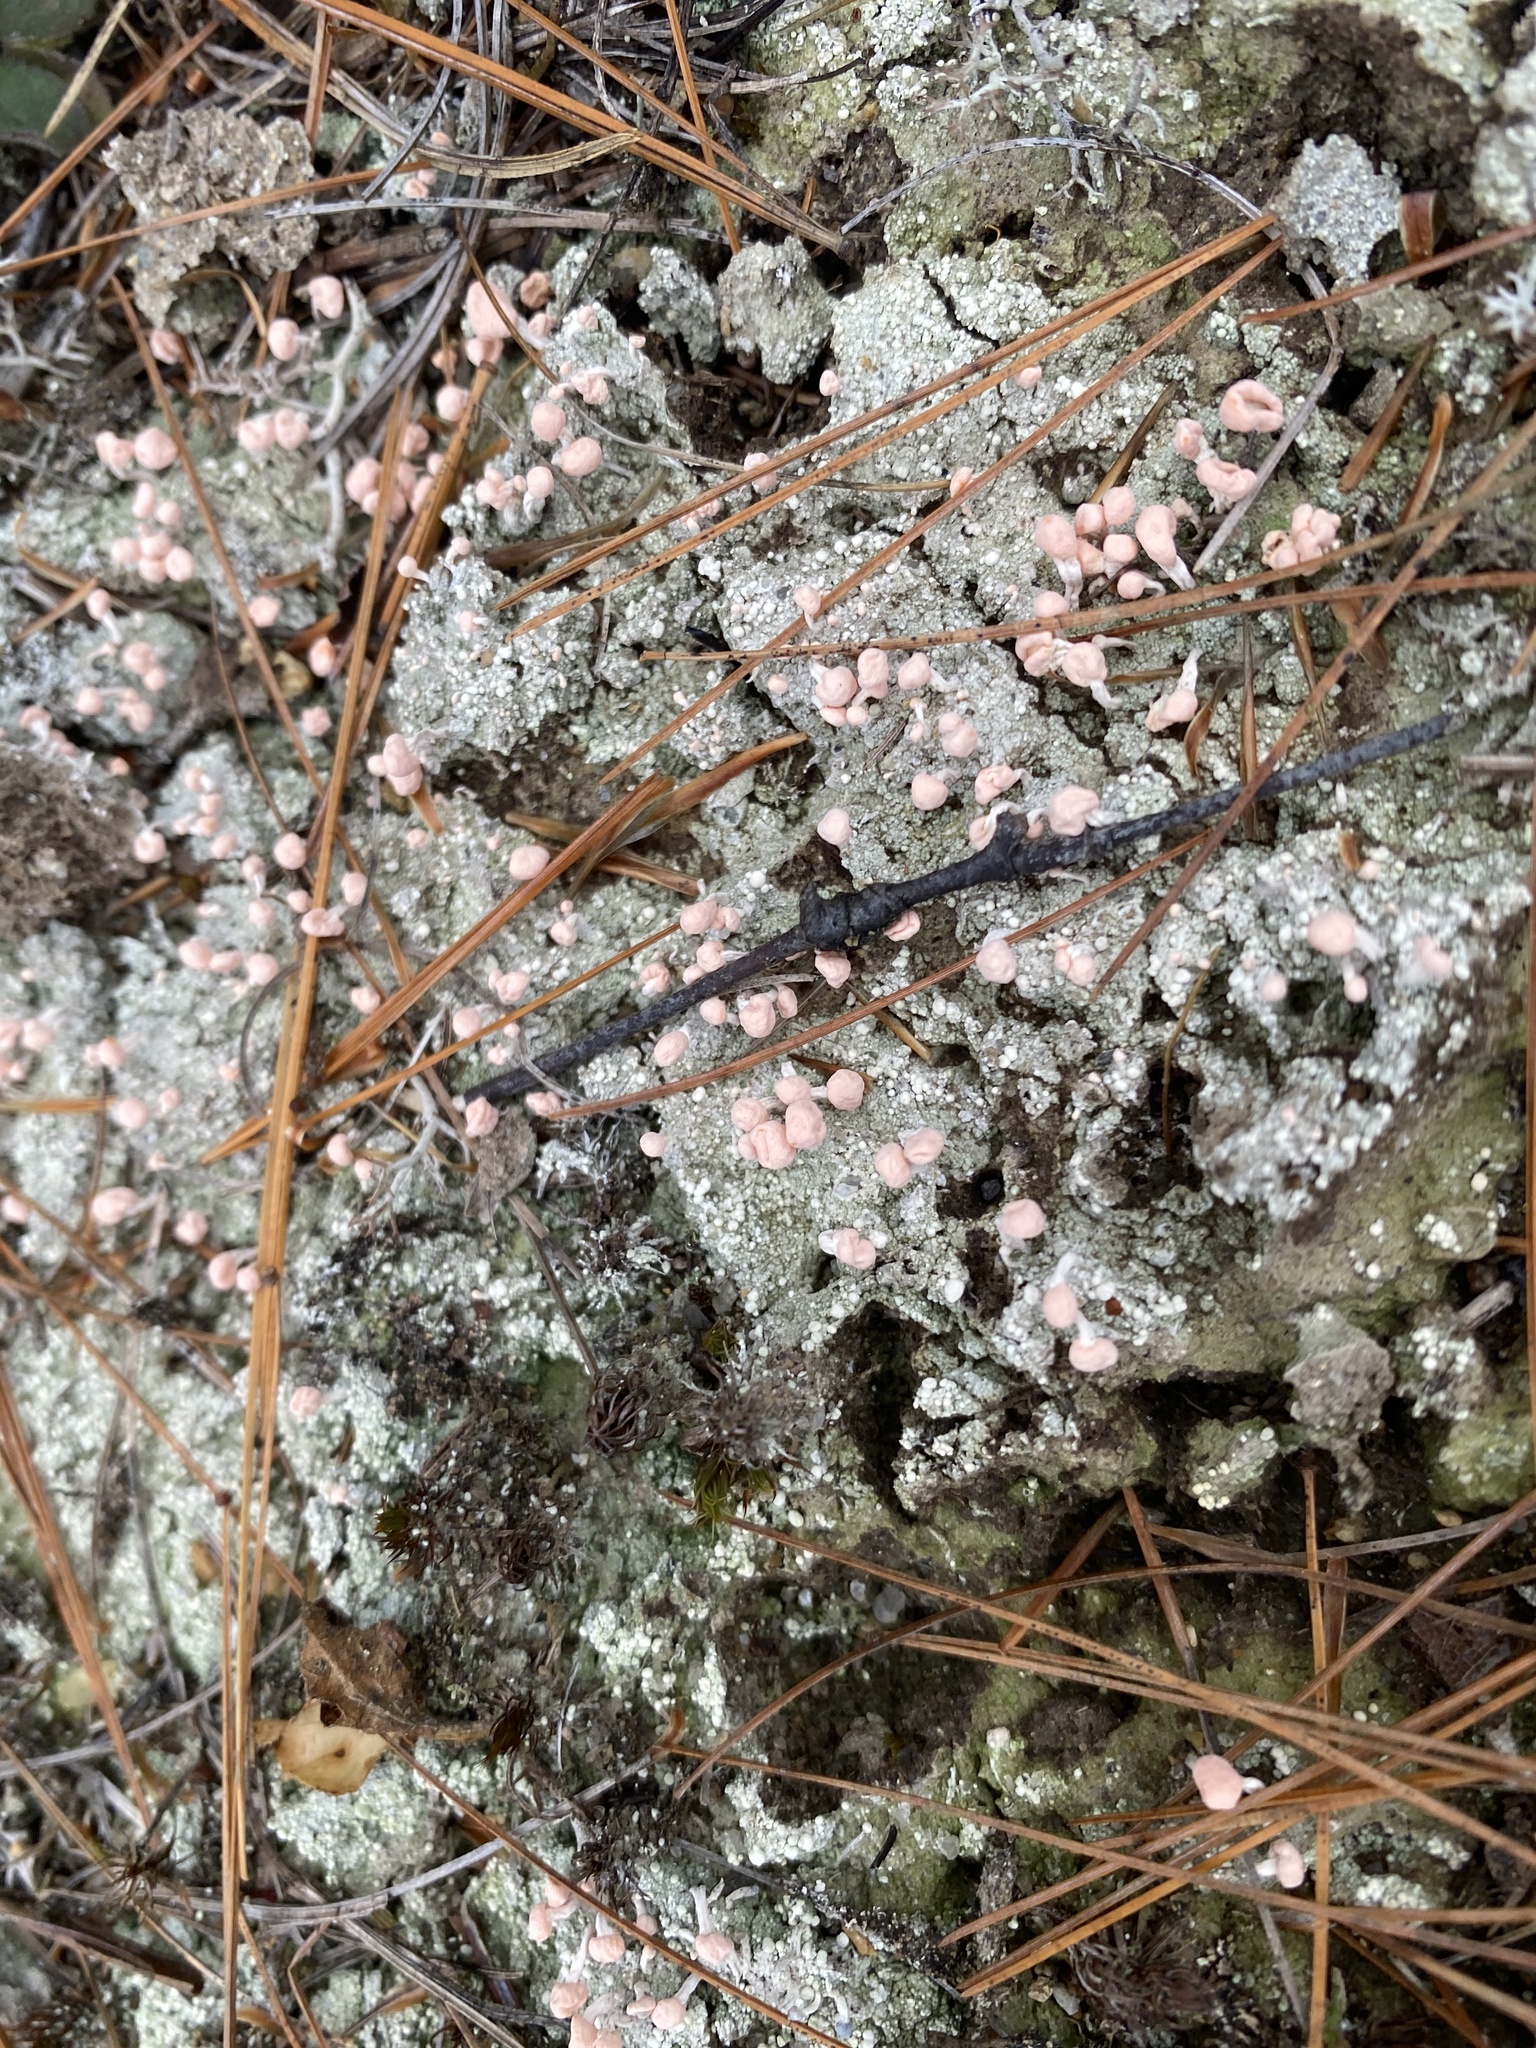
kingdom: Fungi
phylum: Ascomycota
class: Lecanoromycetes
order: Pertusariales
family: Icmadophilaceae
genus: Dibaeis
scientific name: Dibaeis baeomyces
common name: Pink earth lichen
